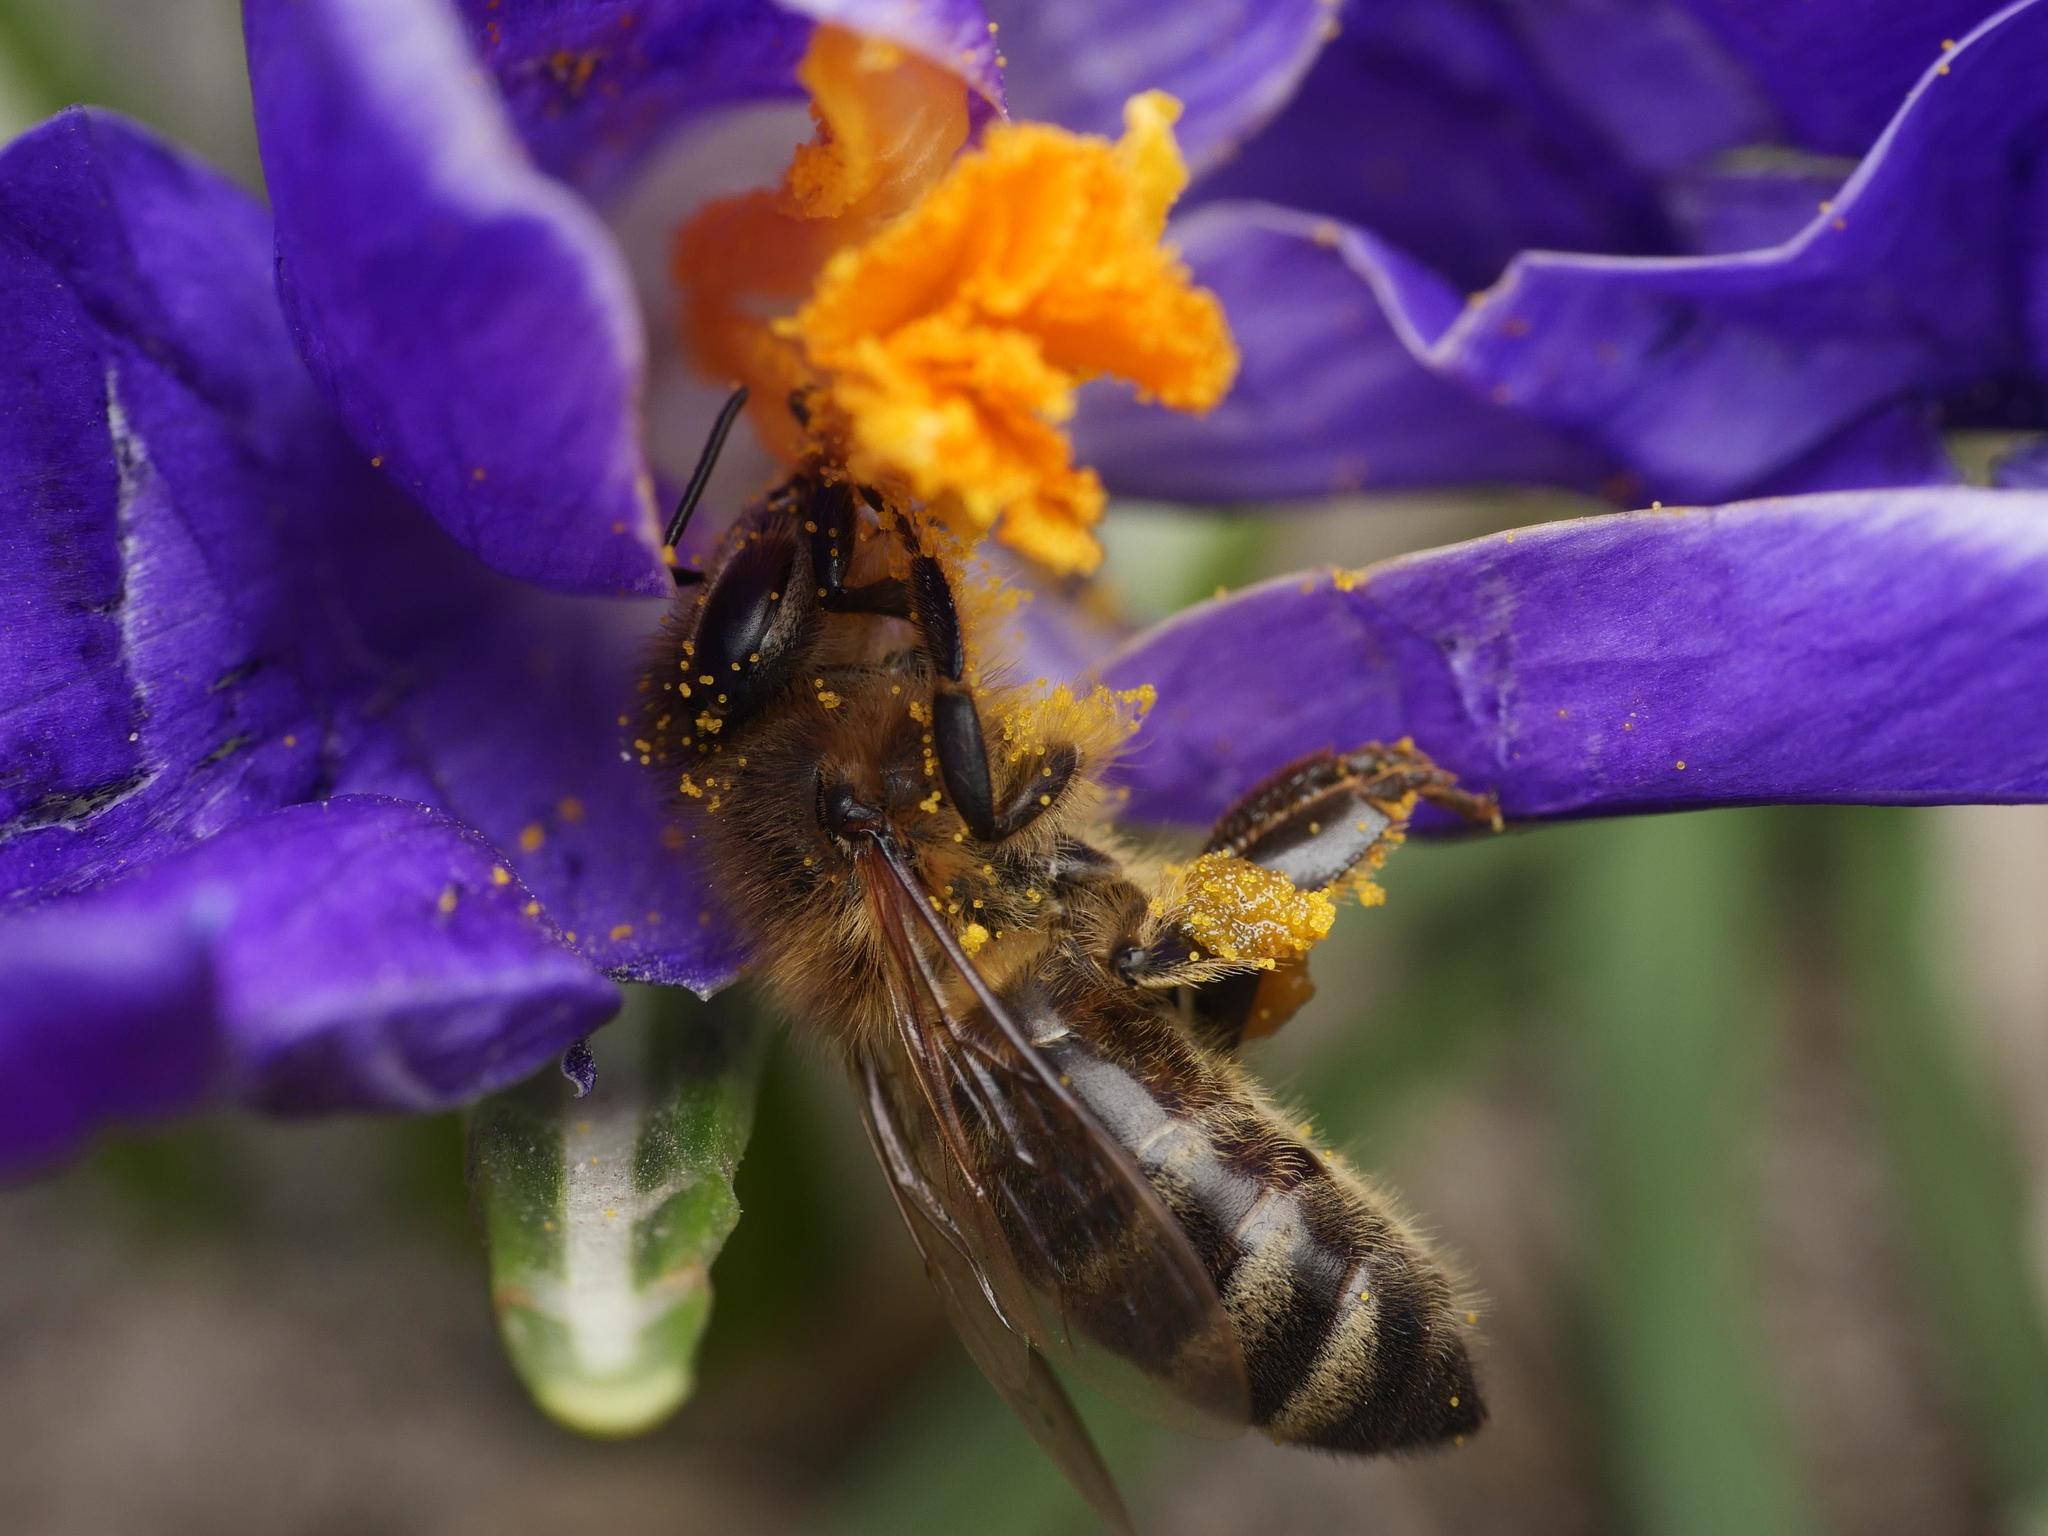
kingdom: Animalia
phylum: Arthropoda
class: Insecta
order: Hymenoptera
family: Apidae
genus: Apis
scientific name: Apis mellifera
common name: Honey bee
